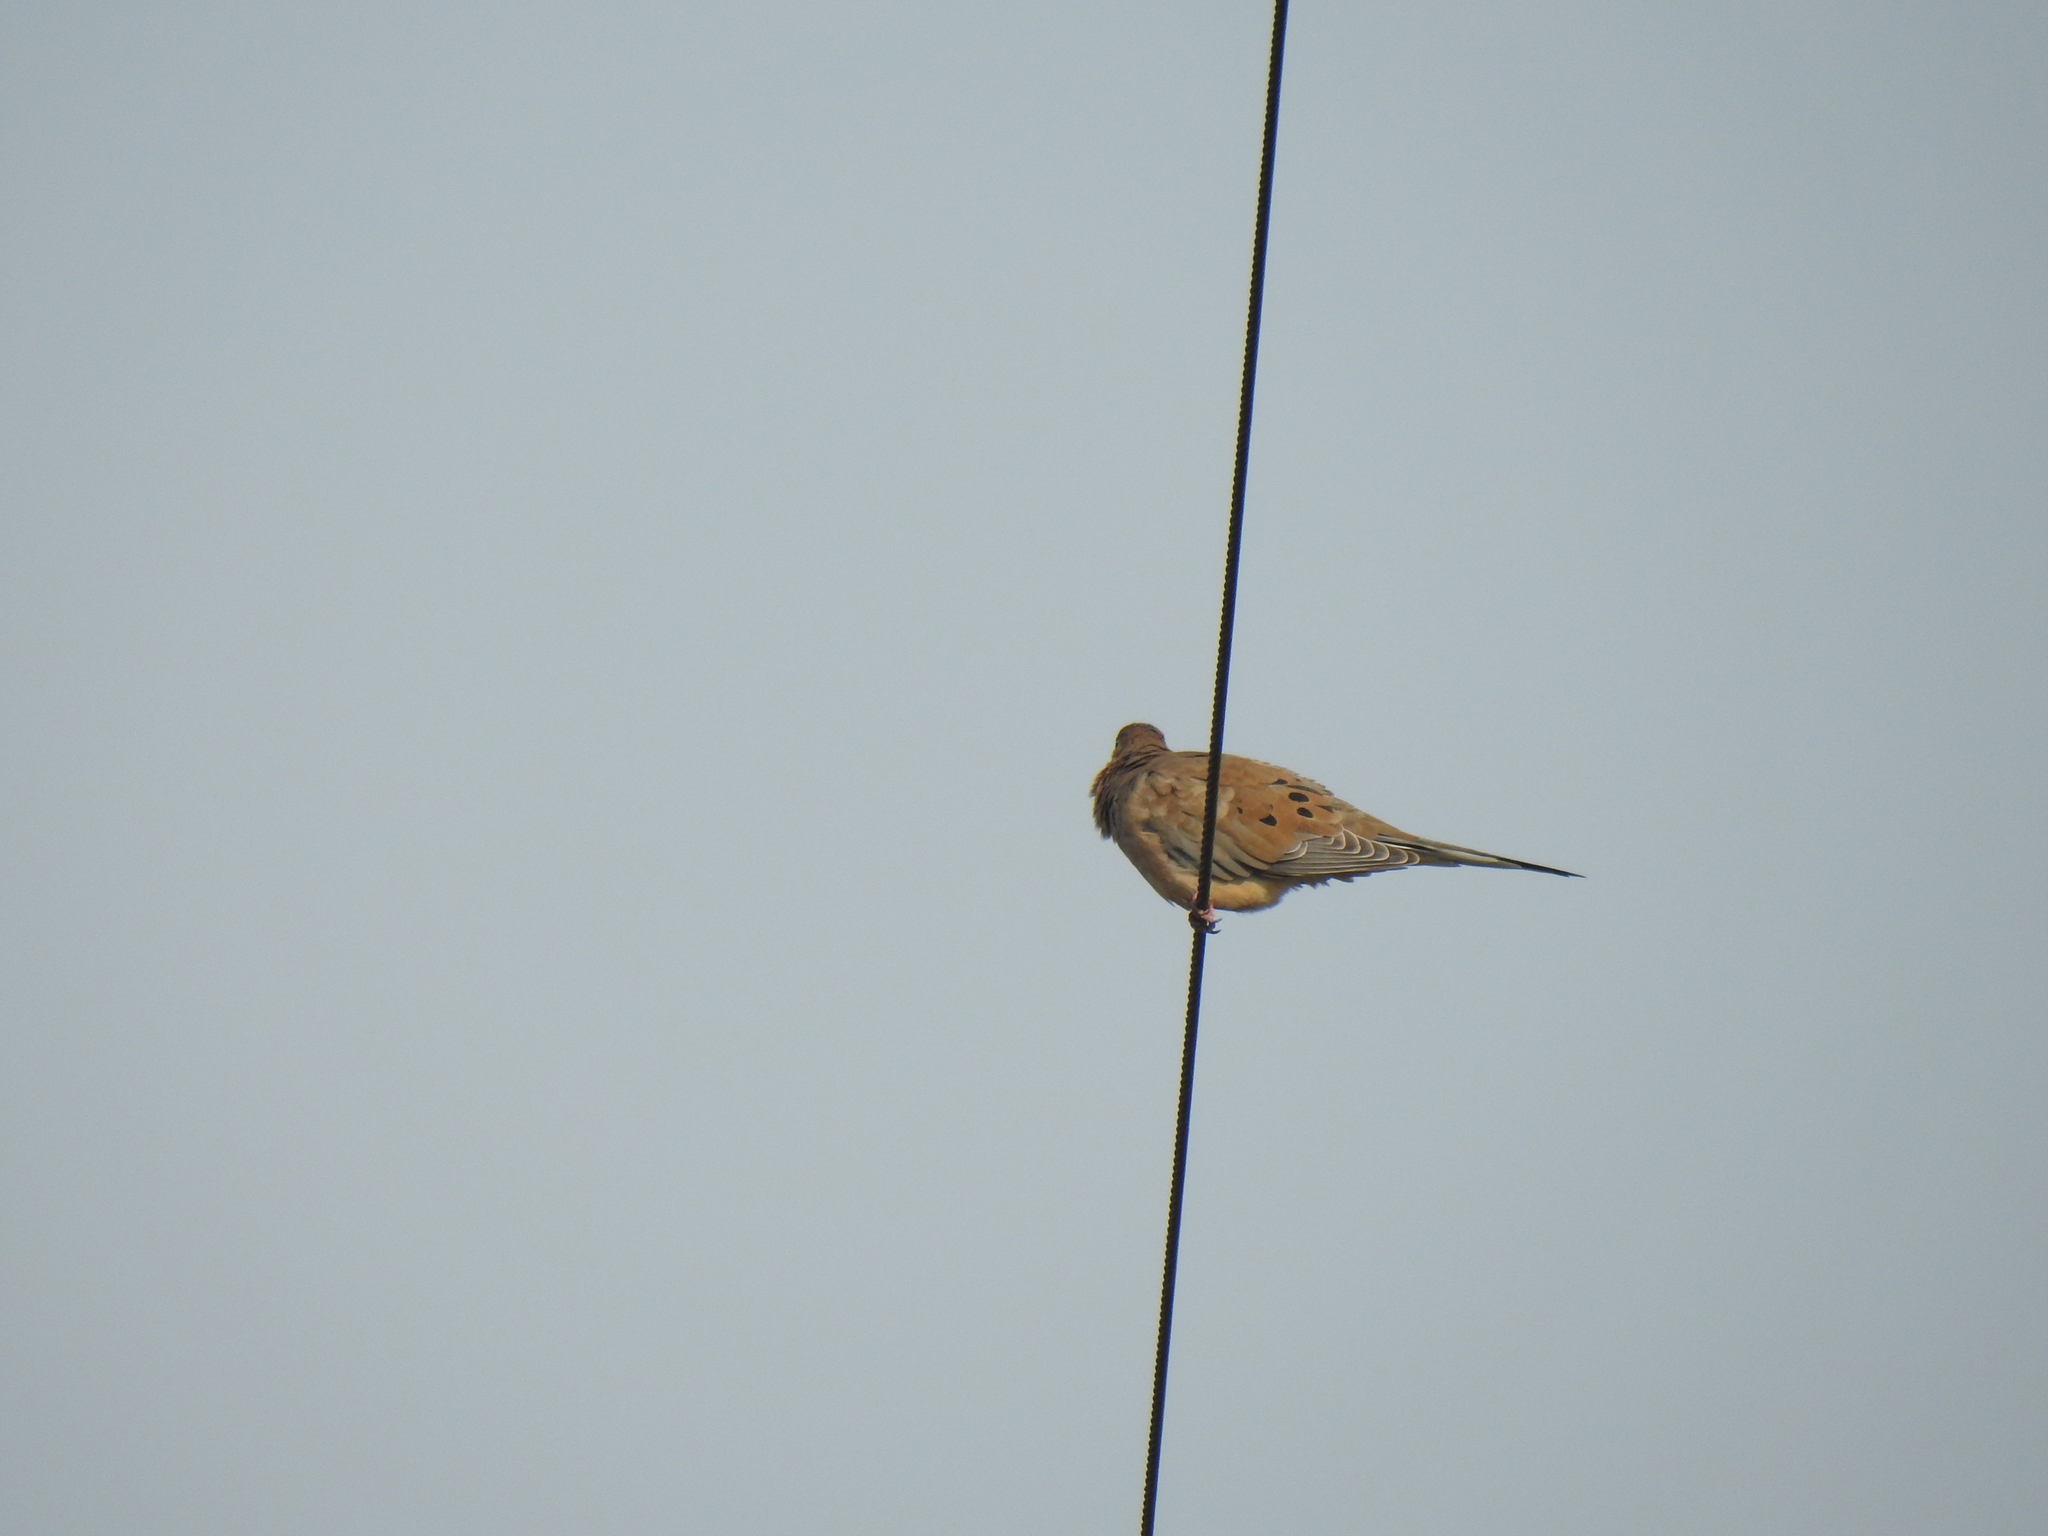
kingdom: Animalia
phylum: Chordata
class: Aves
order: Columbiformes
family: Columbidae
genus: Zenaida
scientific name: Zenaida macroura
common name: Mourning dove
